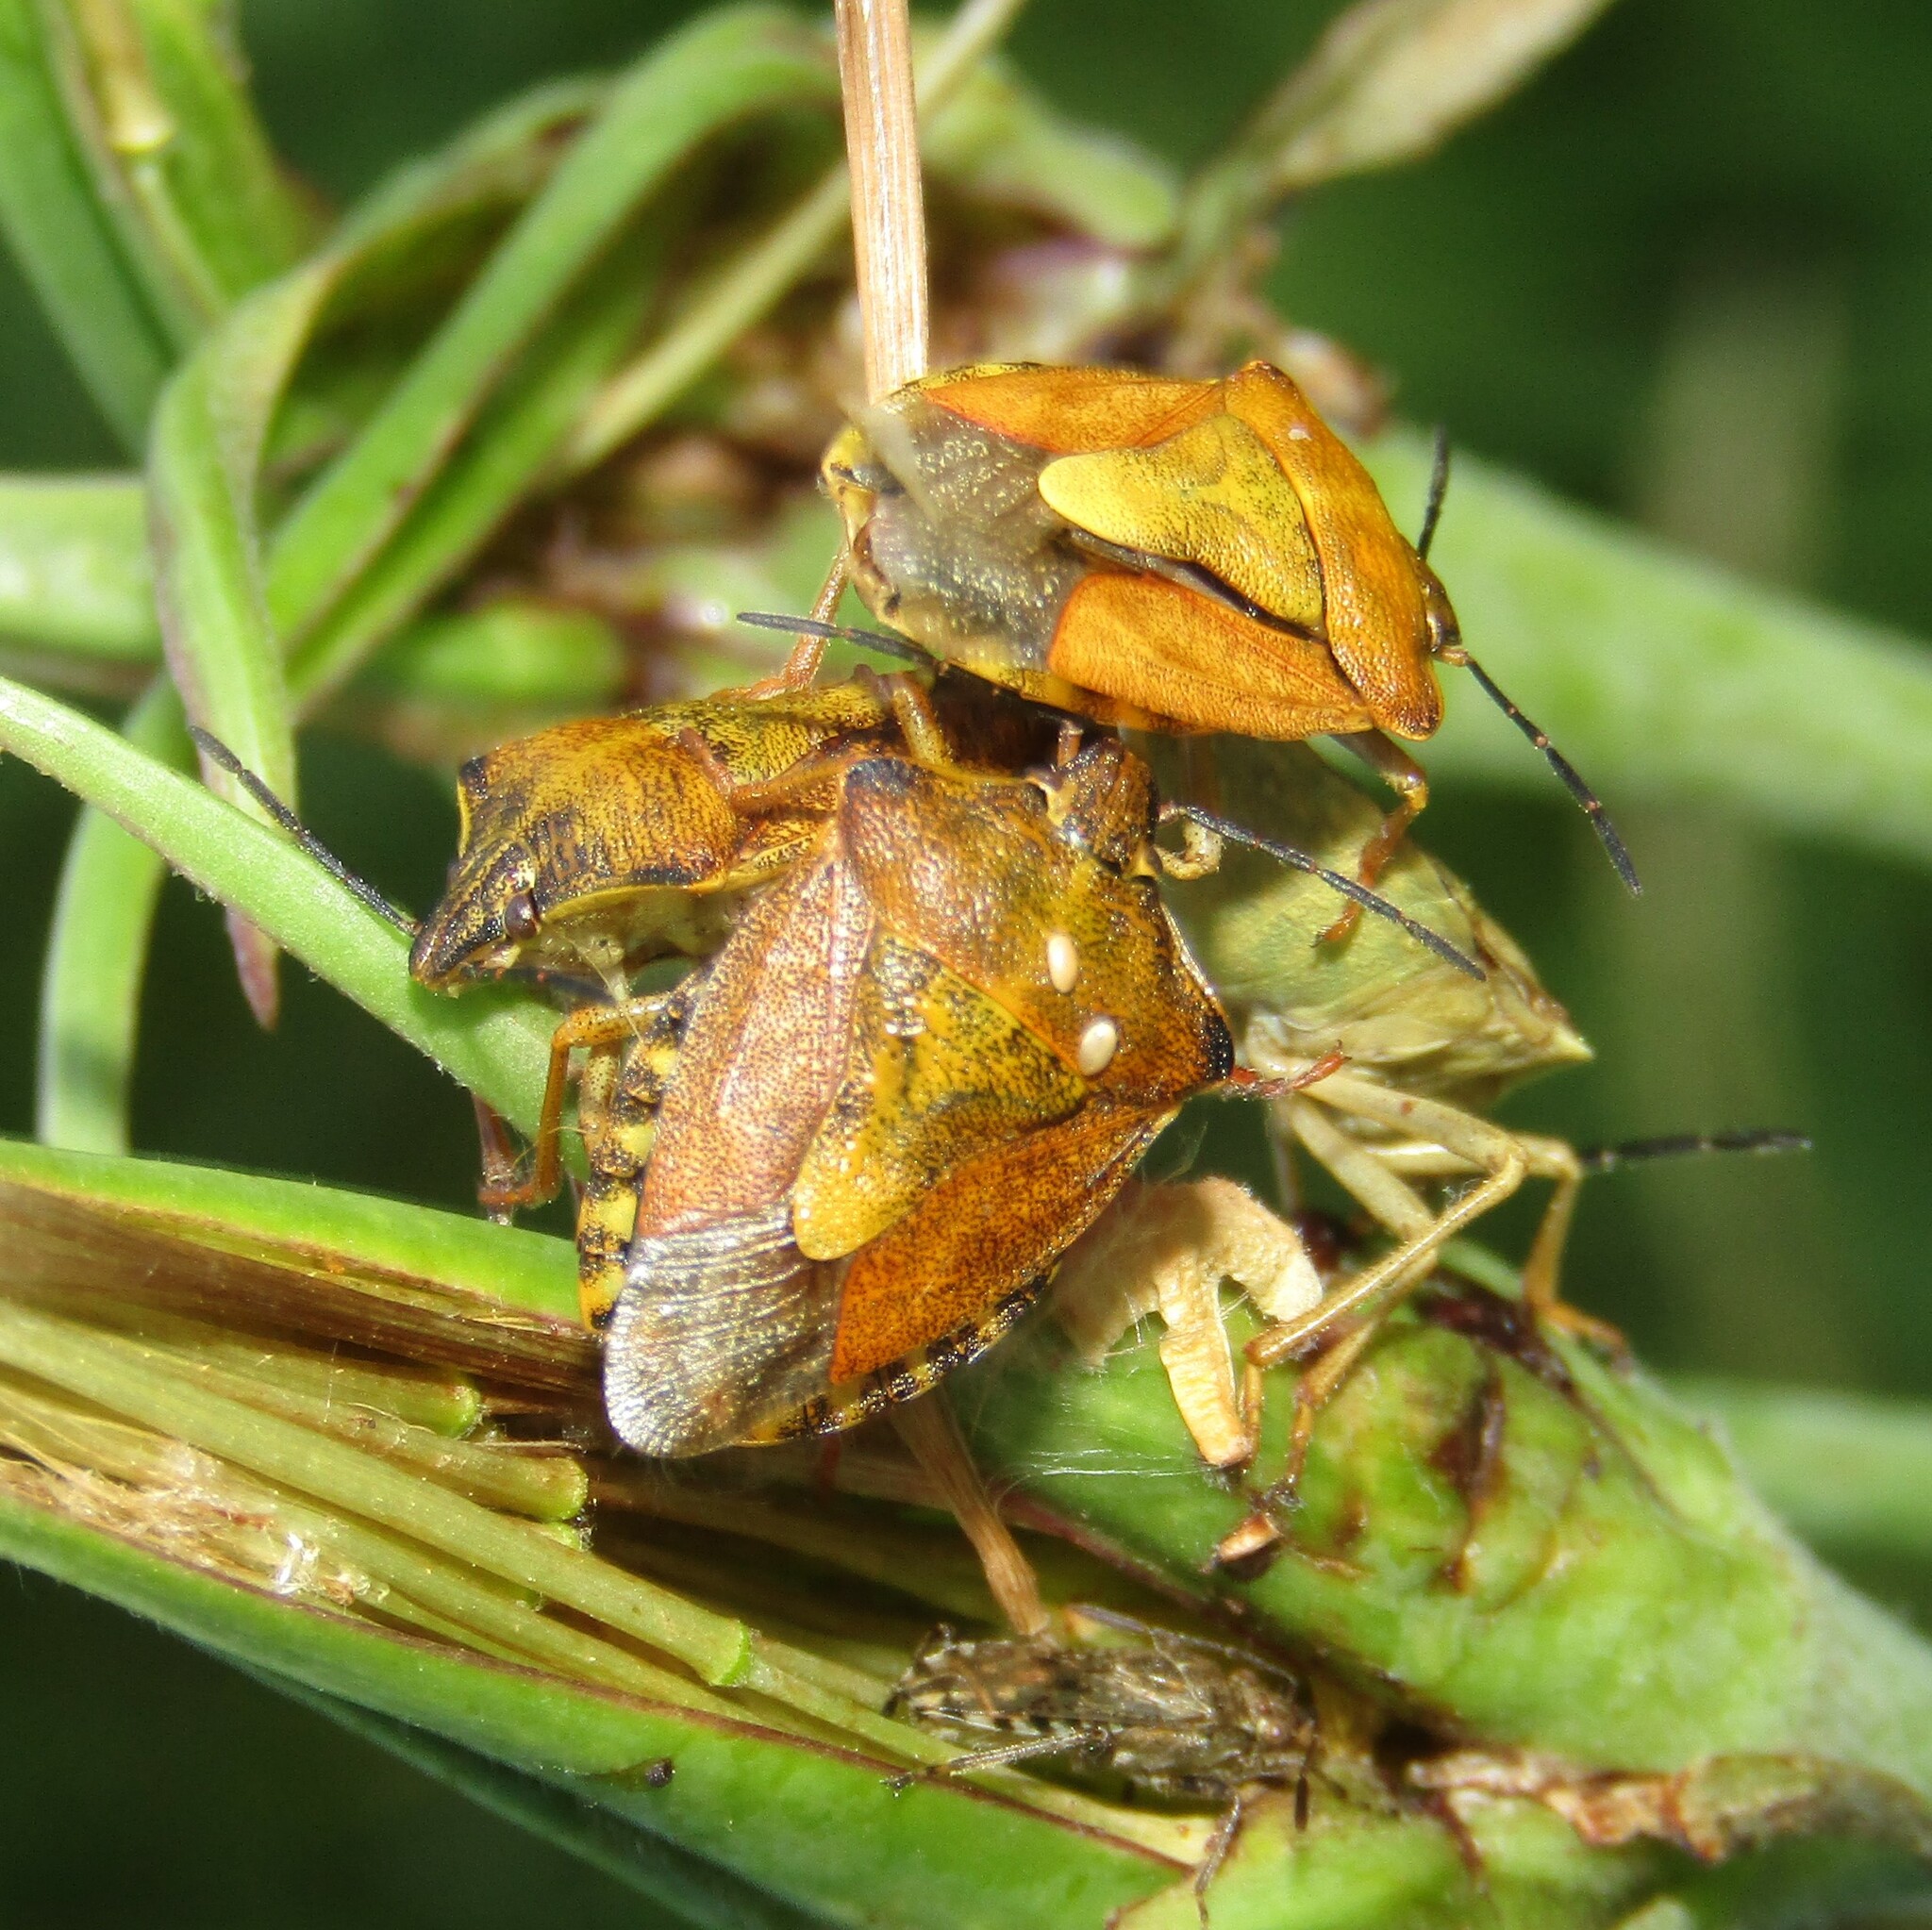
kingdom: Animalia
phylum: Arthropoda
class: Insecta
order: Hemiptera
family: Pentatomidae
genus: Carpocoris
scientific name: Carpocoris purpureipennis
